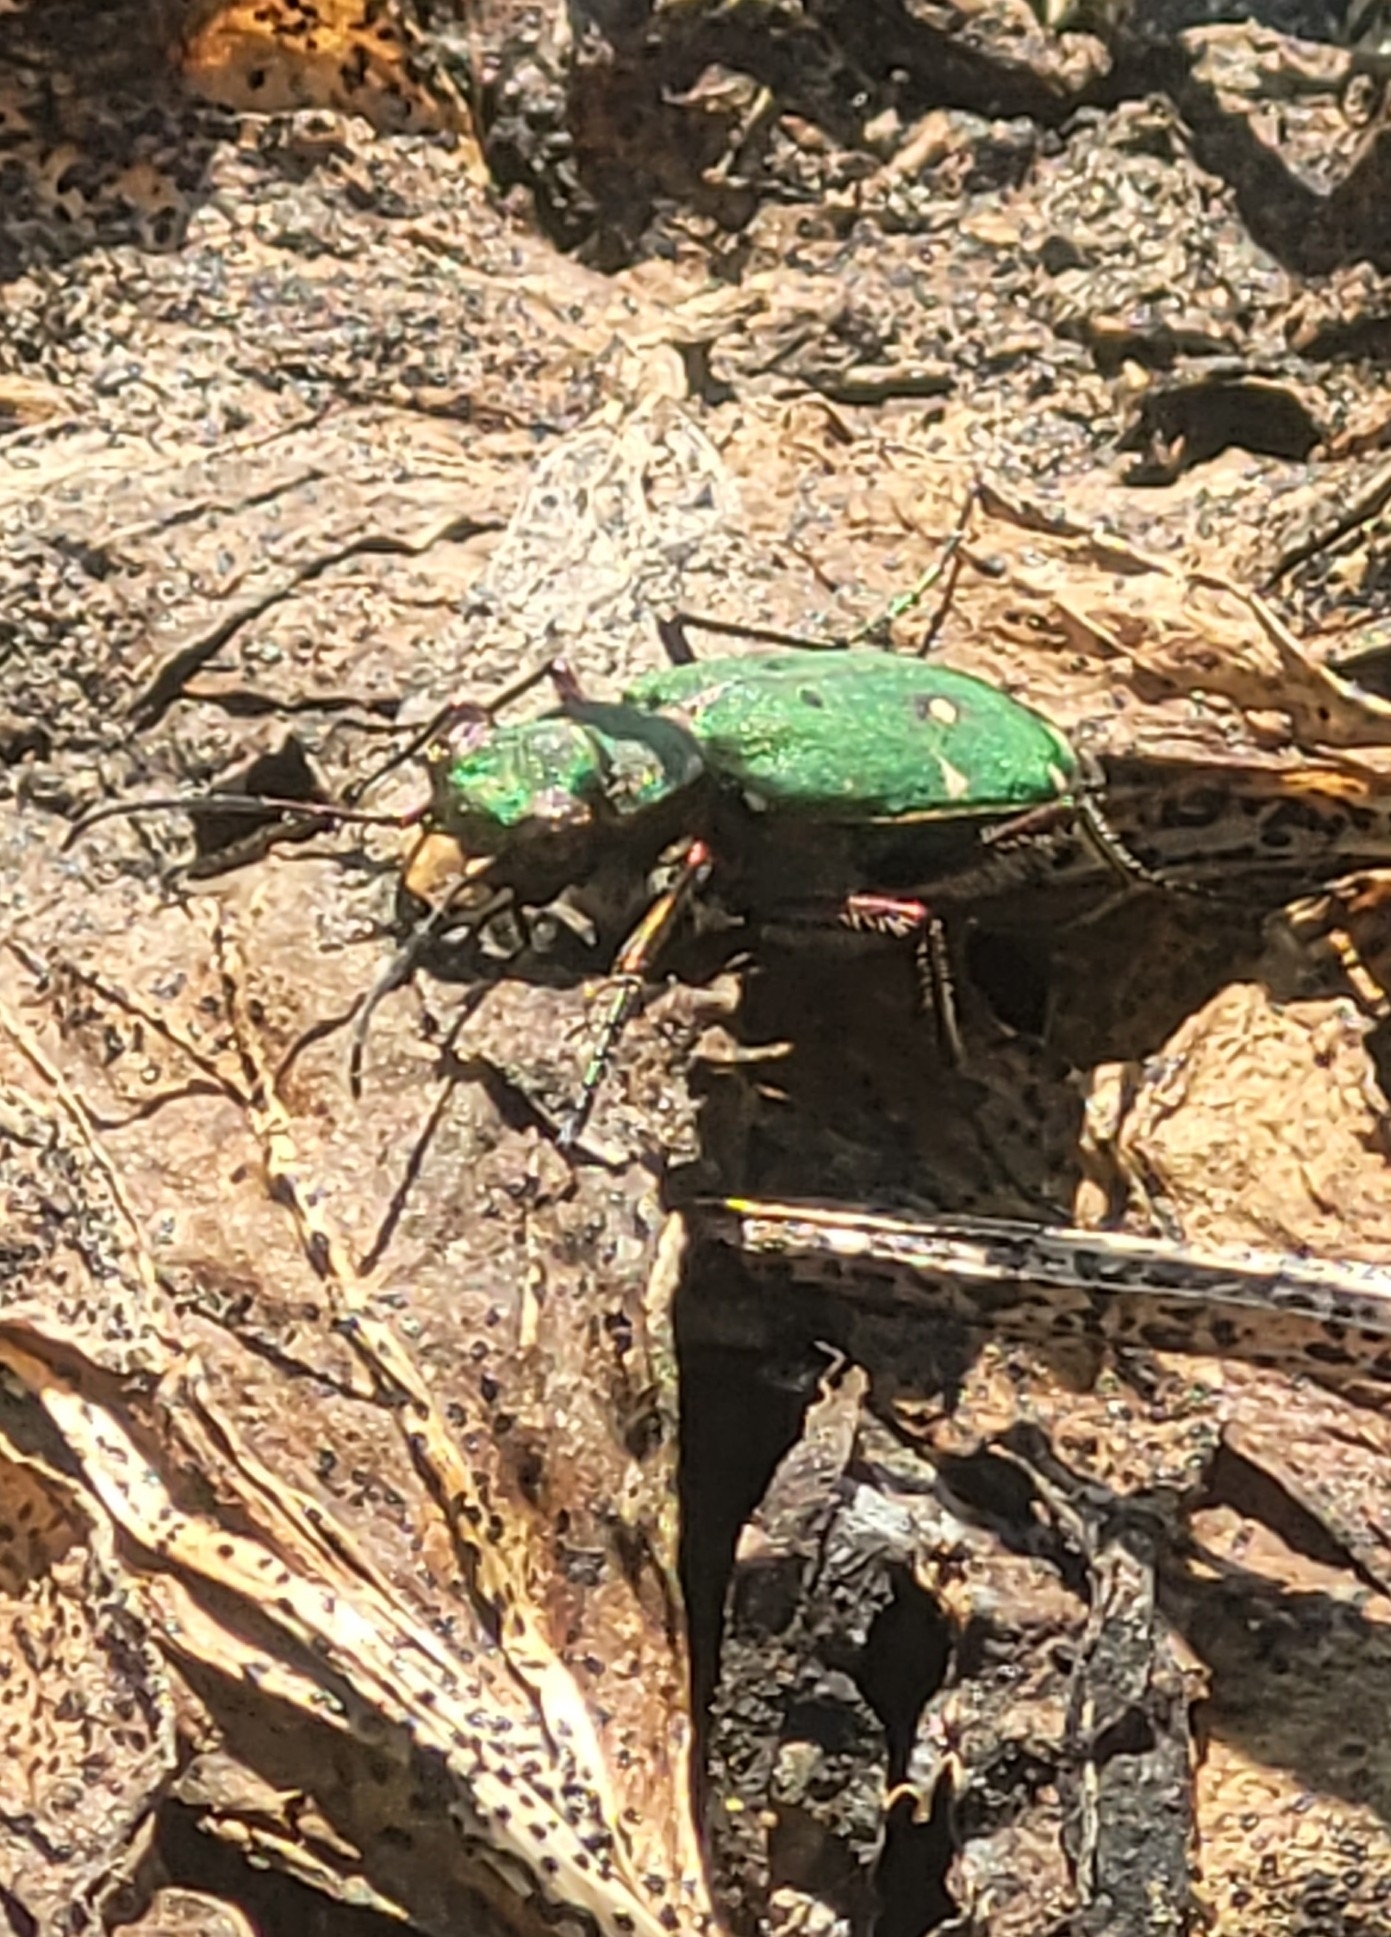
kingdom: Animalia
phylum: Arthropoda
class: Insecta
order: Coleoptera
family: Carabidae
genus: Cicindela
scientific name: Cicindela campestris
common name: Common tiger beetle
